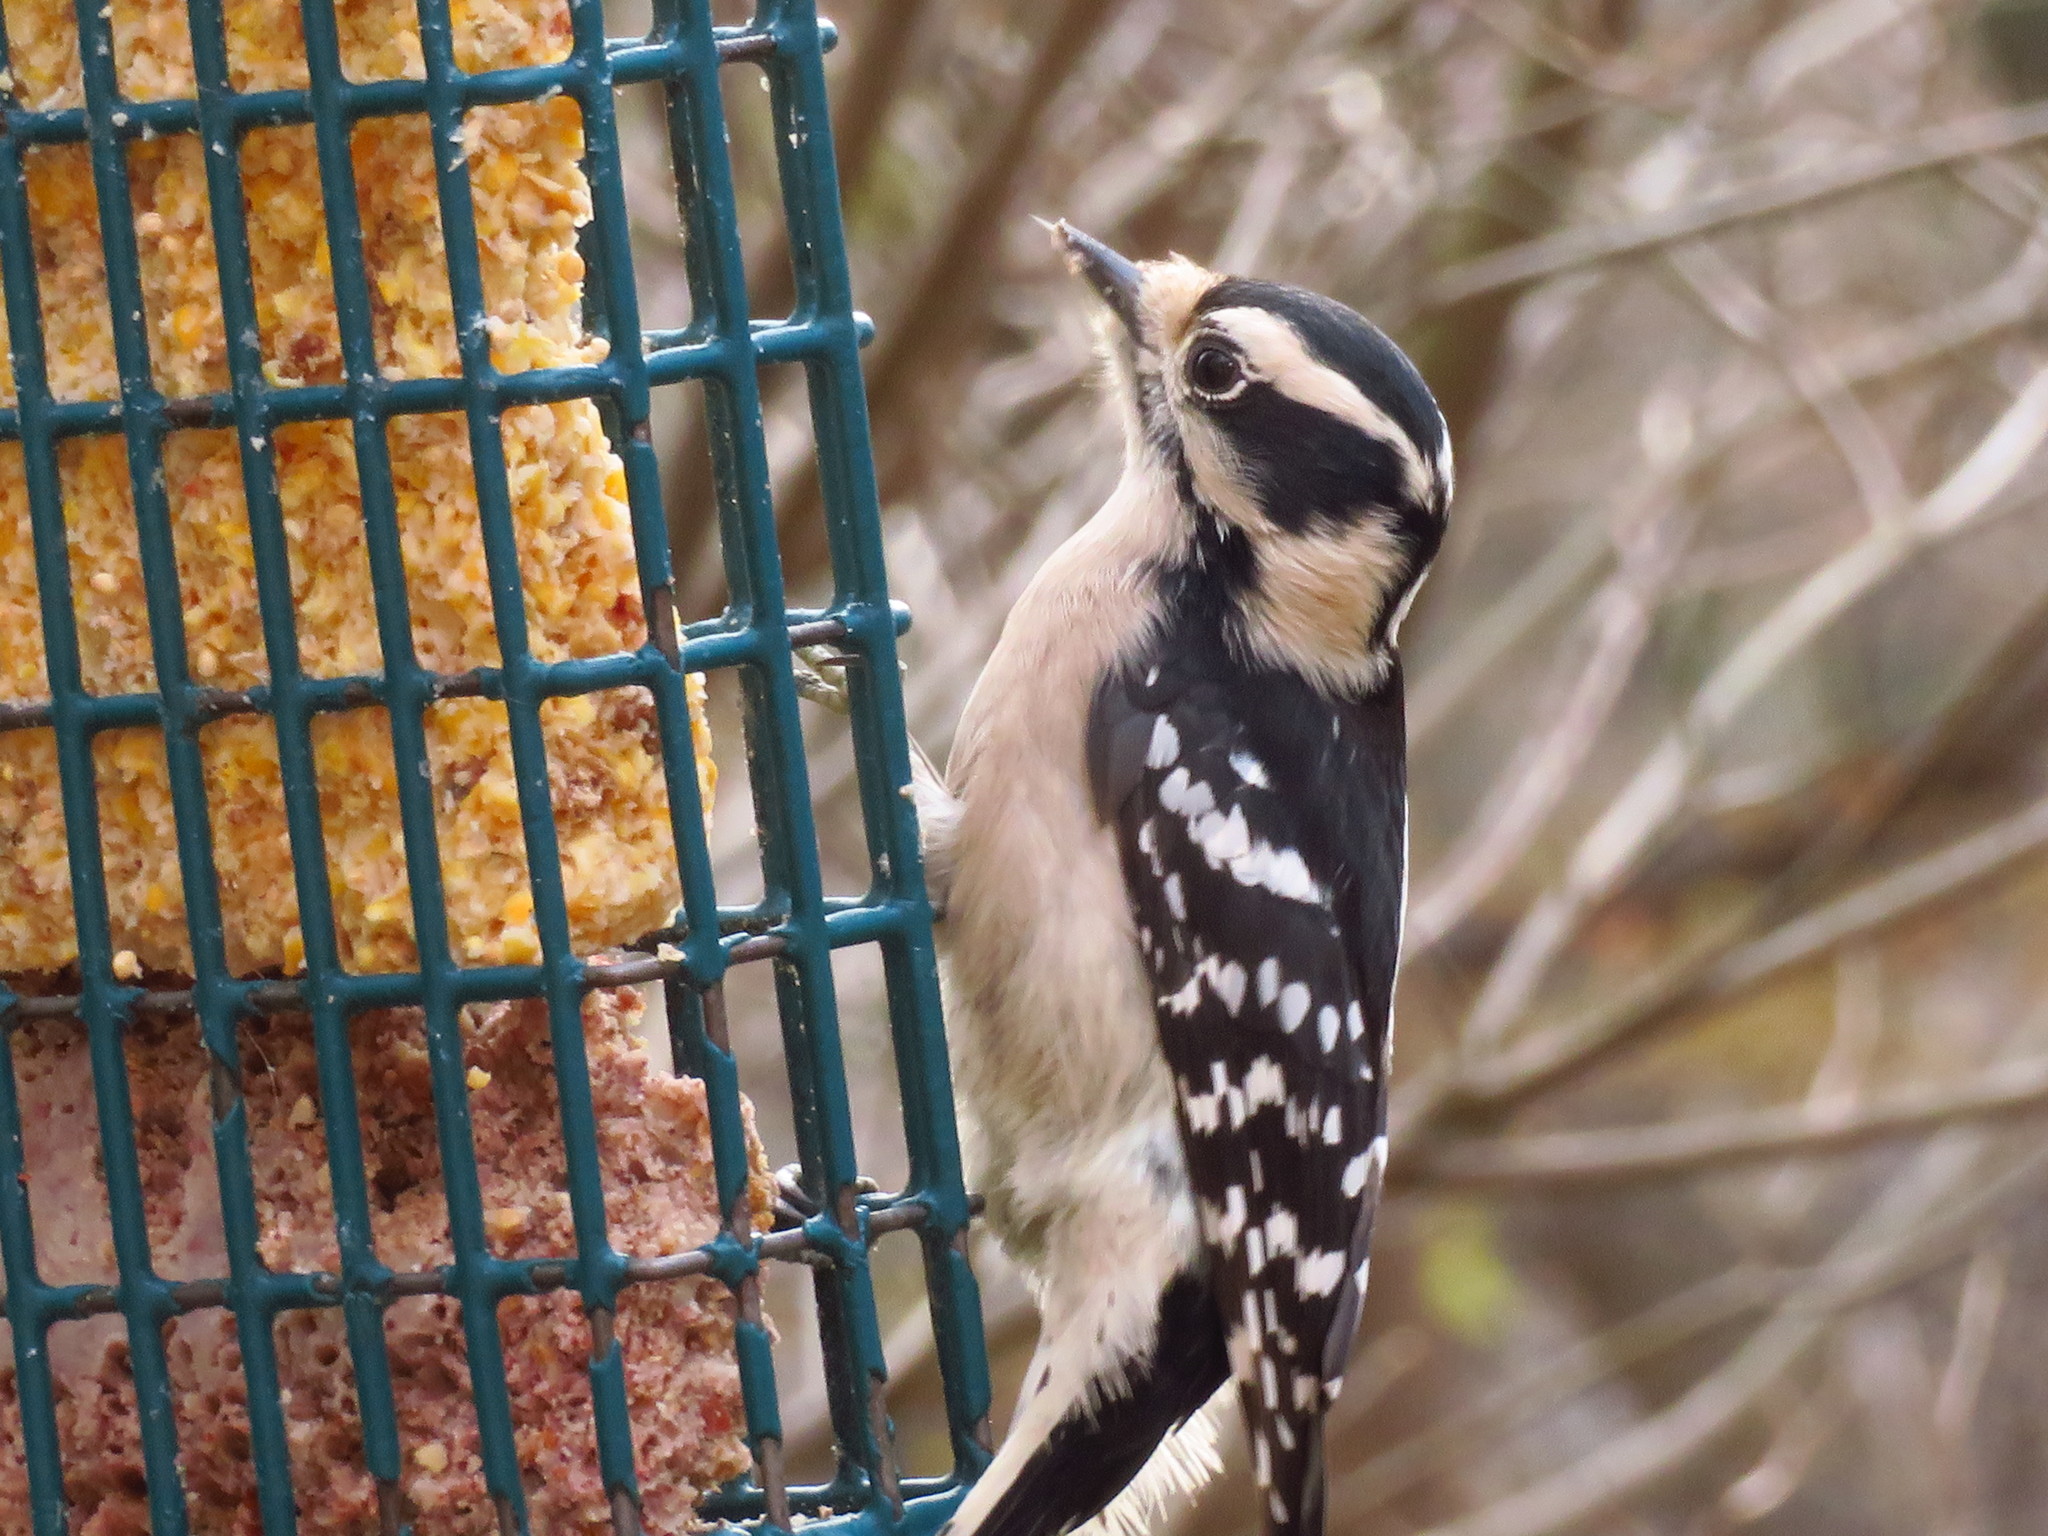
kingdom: Animalia
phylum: Chordata
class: Aves
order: Piciformes
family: Picidae
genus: Dryobates
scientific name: Dryobates pubescens
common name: Downy woodpecker
